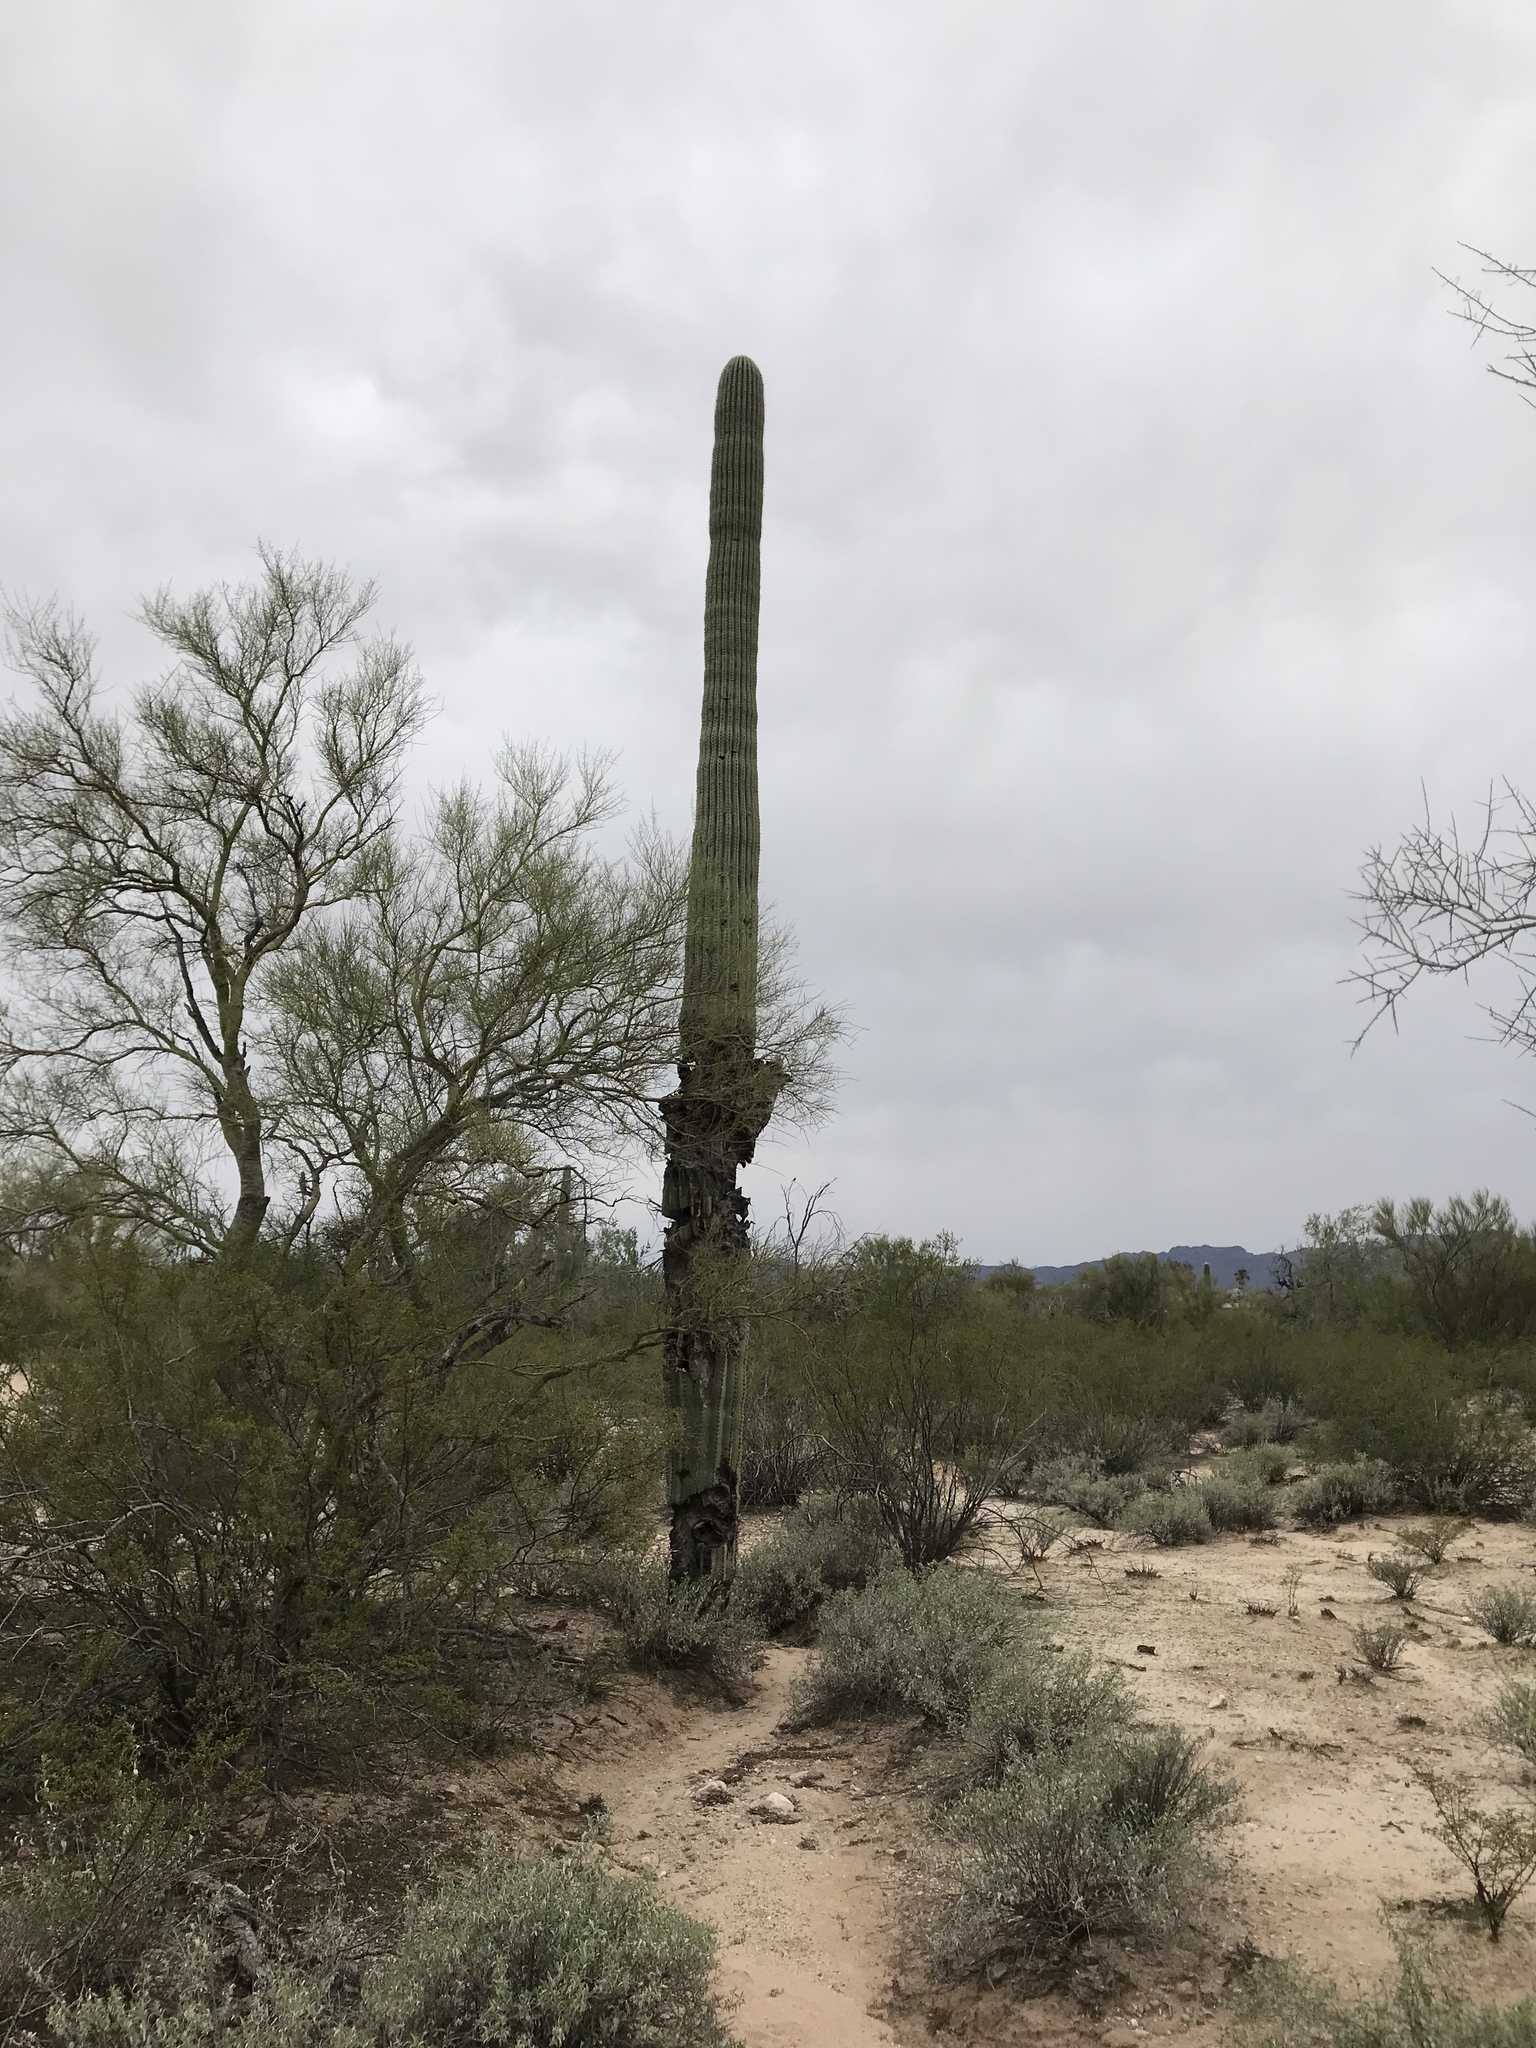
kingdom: Plantae
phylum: Tracheophyta
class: Magnoliopsida
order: Caryophyllales
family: Cactaceae
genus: Carnegiea
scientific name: Carnegiea gigantea
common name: Saguaro
